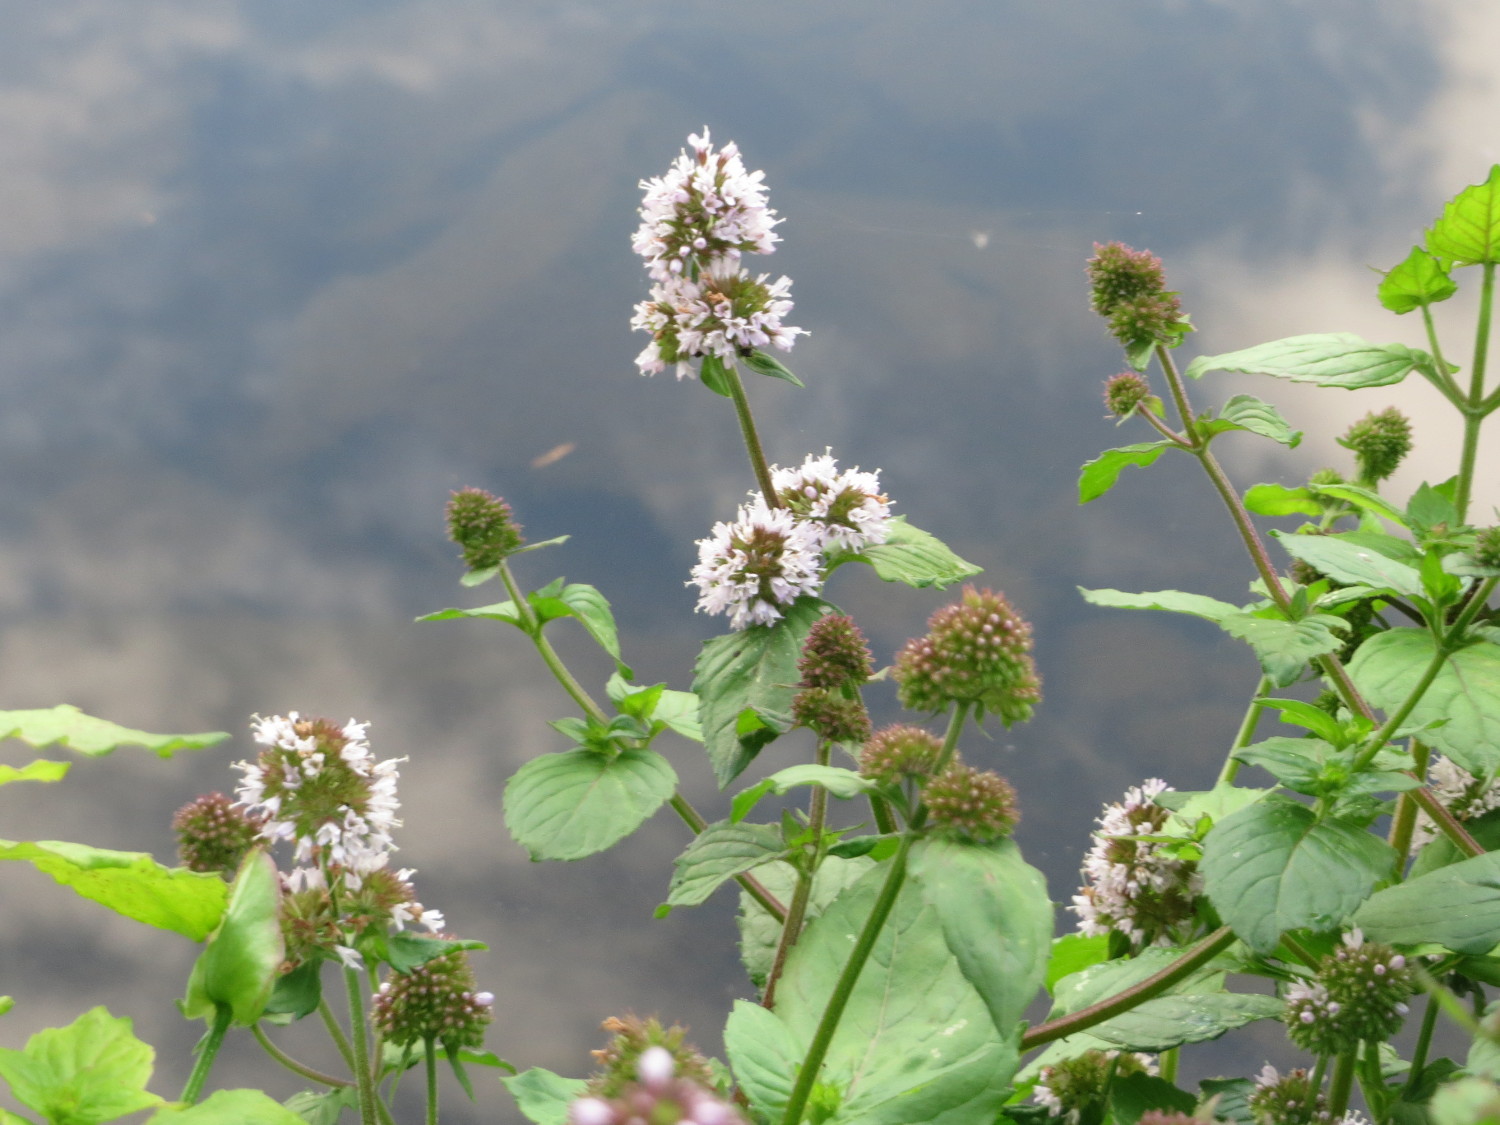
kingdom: Plantae
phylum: Tracheophyta
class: Magnoliopsida
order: Lamiales
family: Lamiaceae
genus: Mentha
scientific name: Mentha aquatica
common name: Water mint
